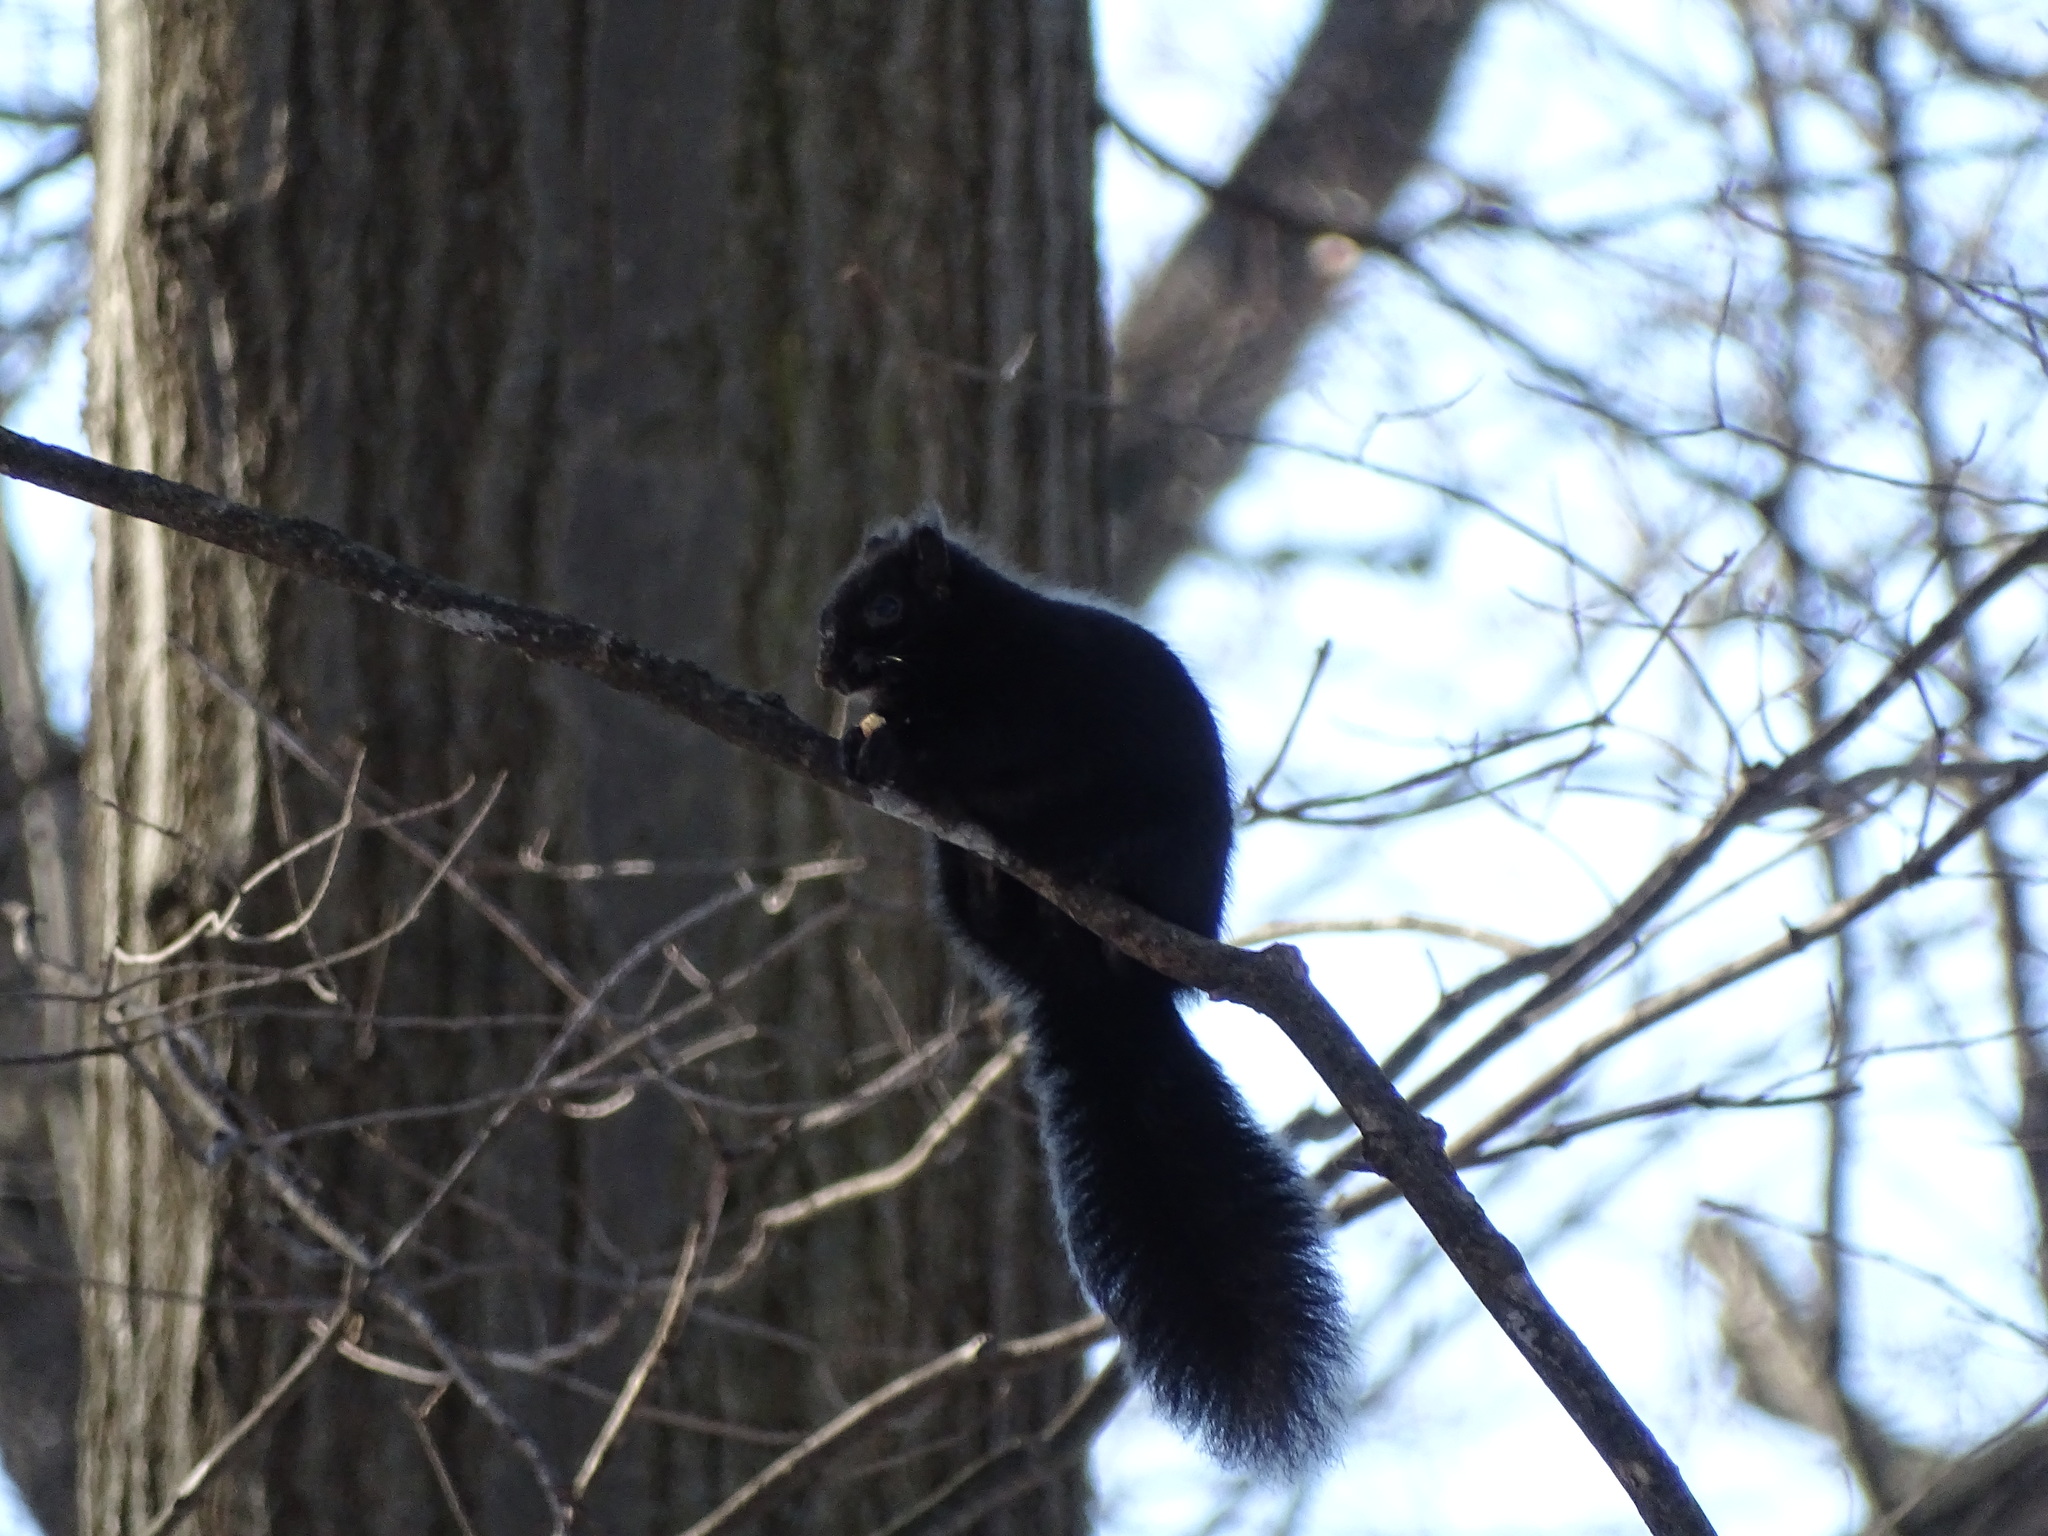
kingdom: Animalia
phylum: Chordata
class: Mammalia
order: Rodentia
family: Sciuridae
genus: Sciurus
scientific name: Sciurus carolinensis
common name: Eastern gray squirrel
